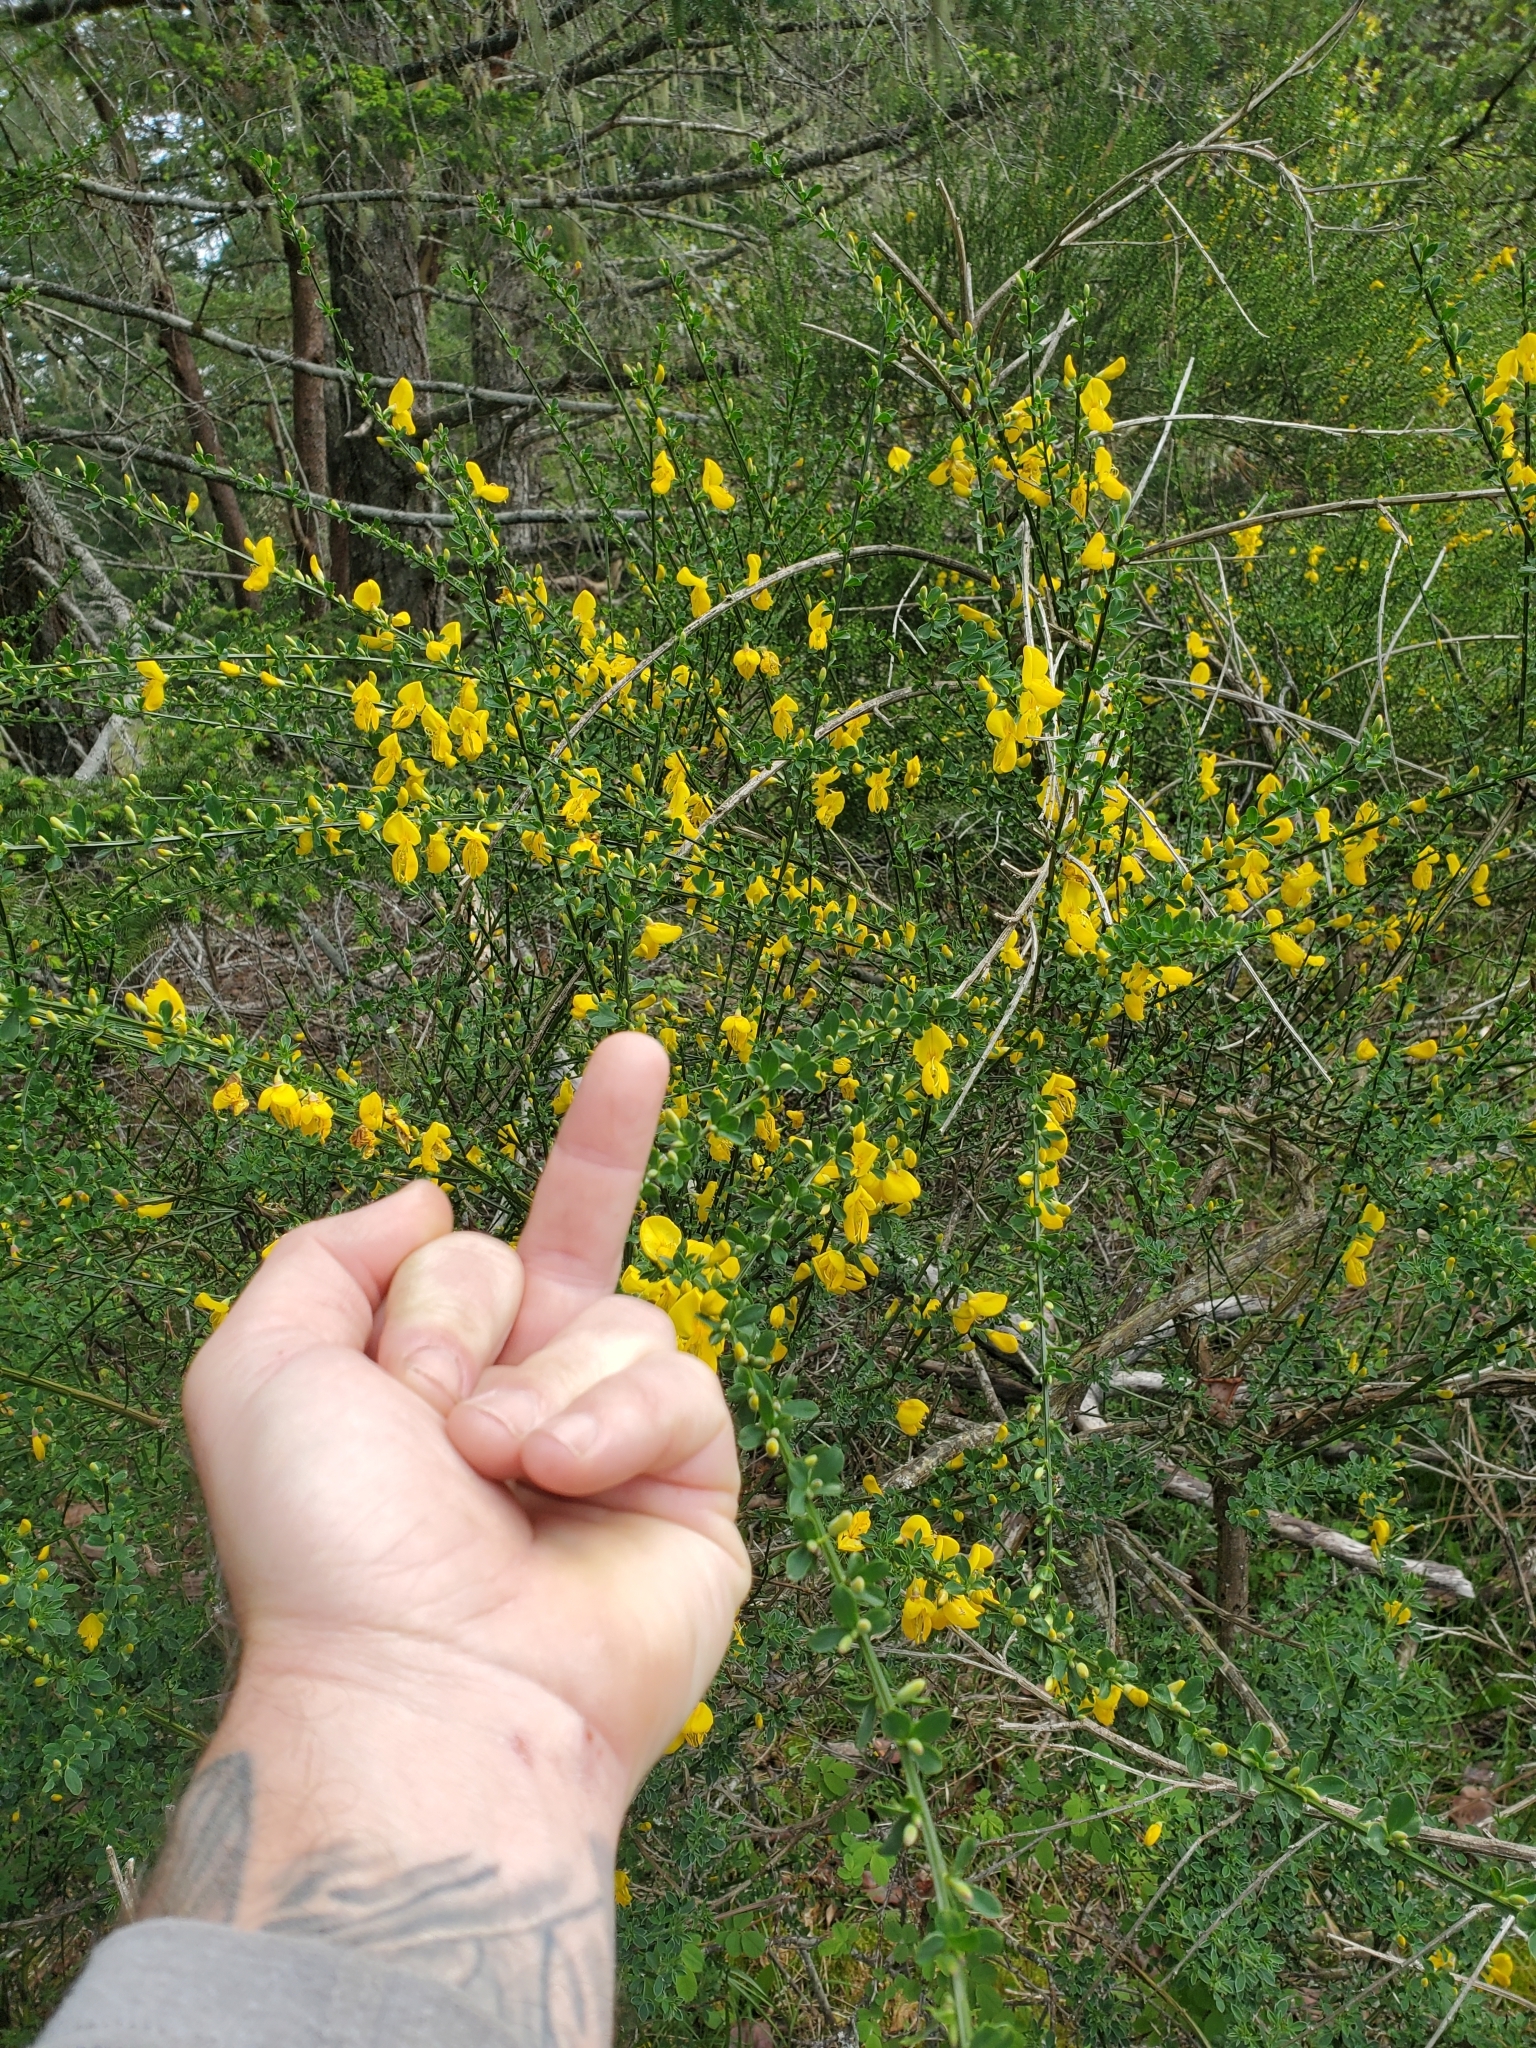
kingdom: Plantae
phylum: Tracheophyta
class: Magnoliopsida
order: Fabales
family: Fabaceae
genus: Cytisus
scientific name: Cytisus scoparius
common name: Scotch broom
